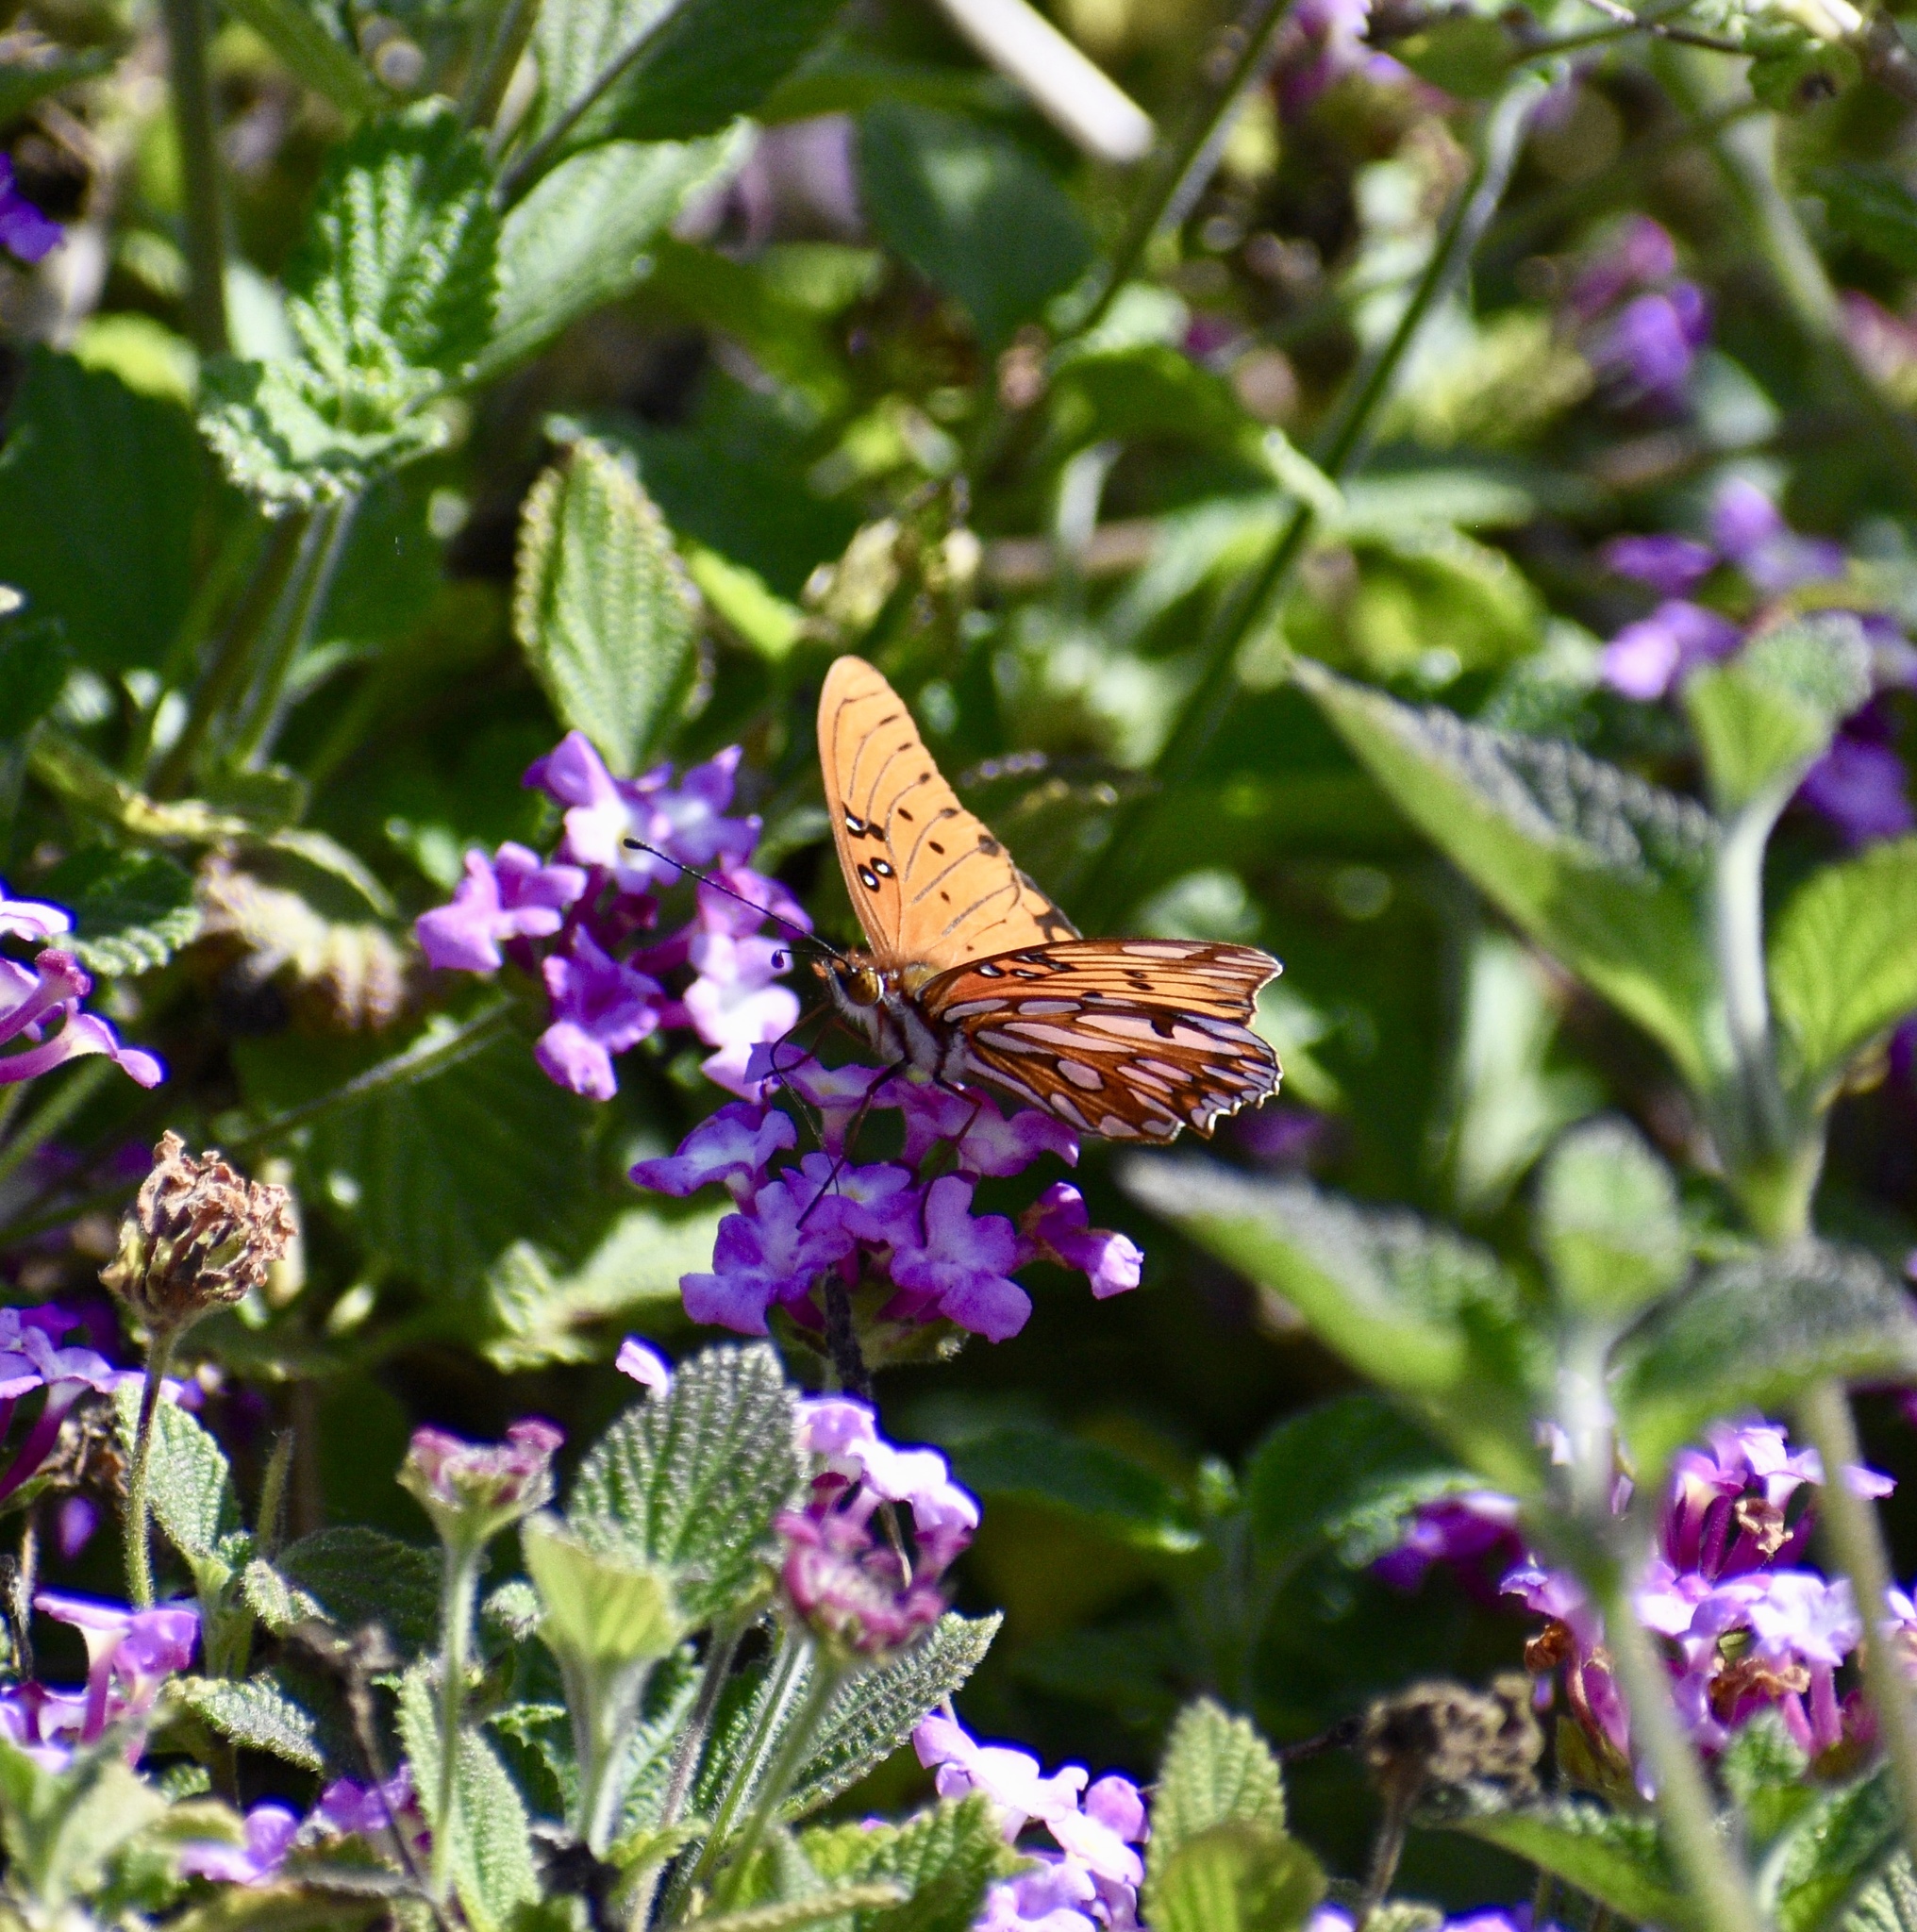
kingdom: Animalia
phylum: Arthropoda
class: Insecta
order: Lepidoptera
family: Nymphalidae
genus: Dione
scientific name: Dione vanillae
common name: Gulf fritillary
